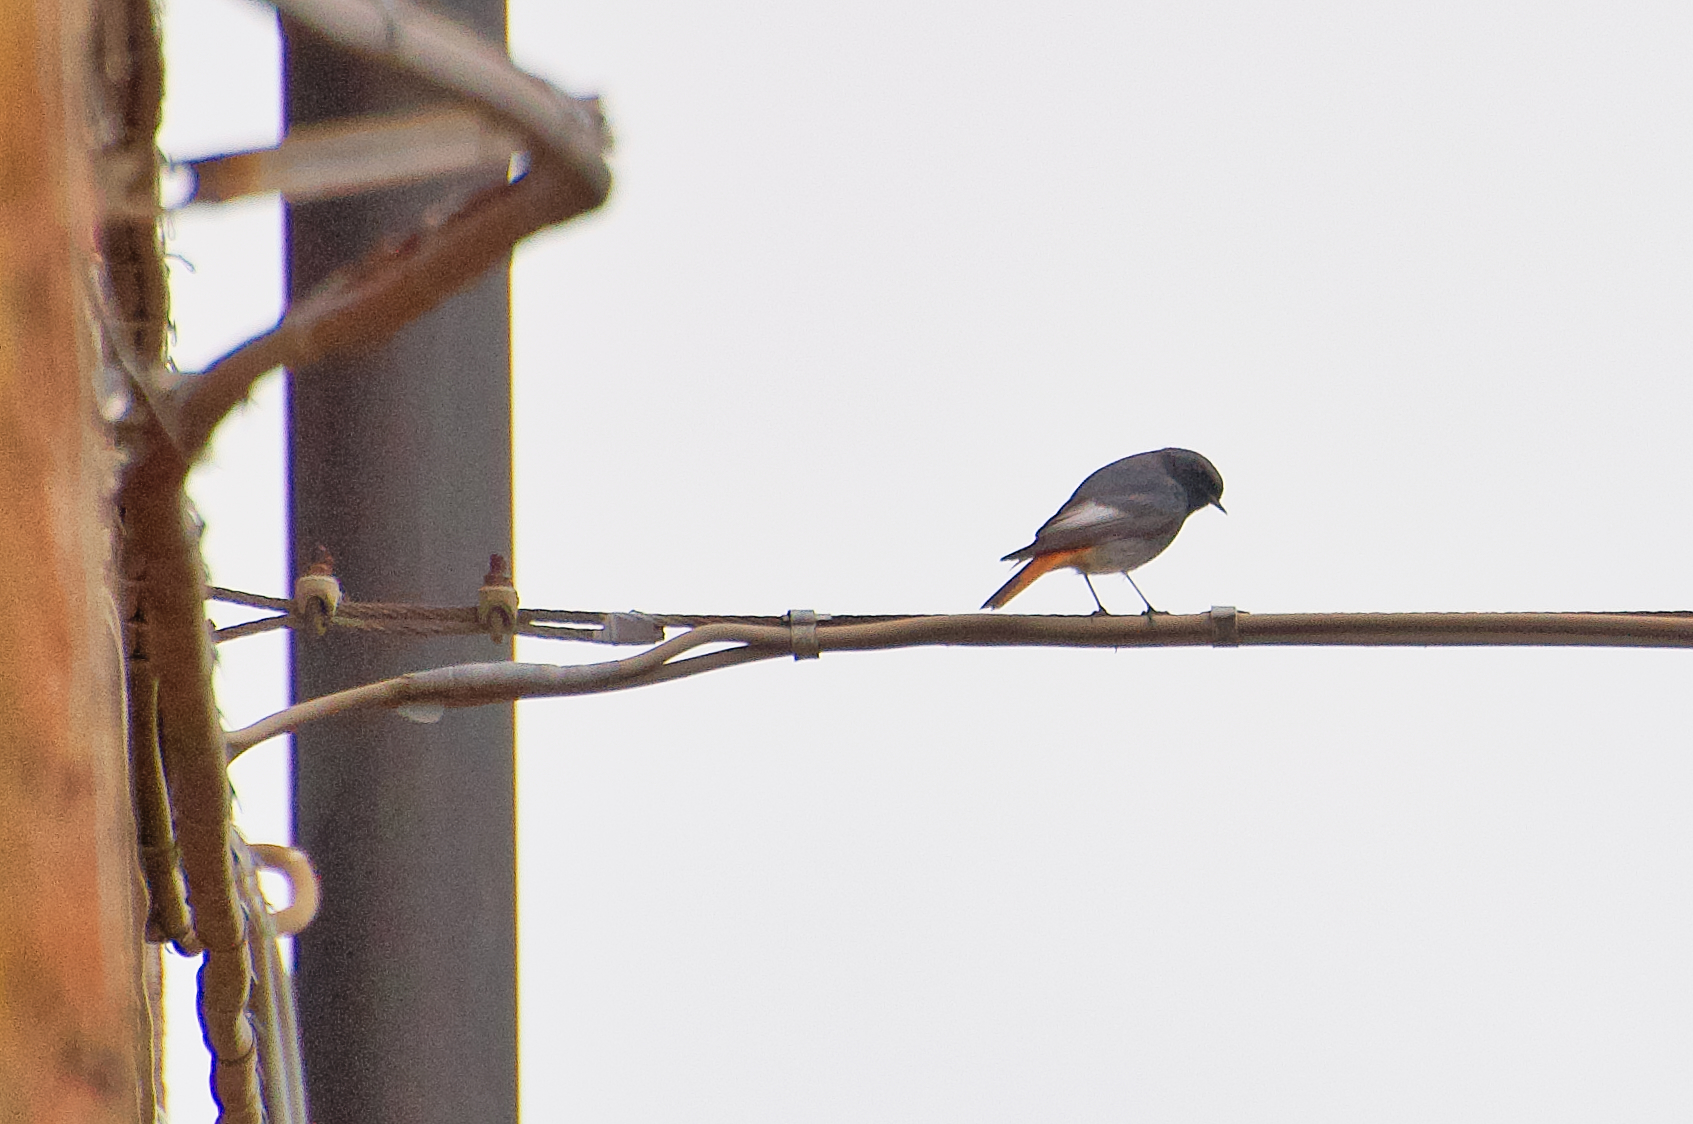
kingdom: Animalia
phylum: Chordata
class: Aves
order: Passeriformes
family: Muscicapidae
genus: Phoenicurus
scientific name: Phoenicurus ochruros
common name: Black redstart
